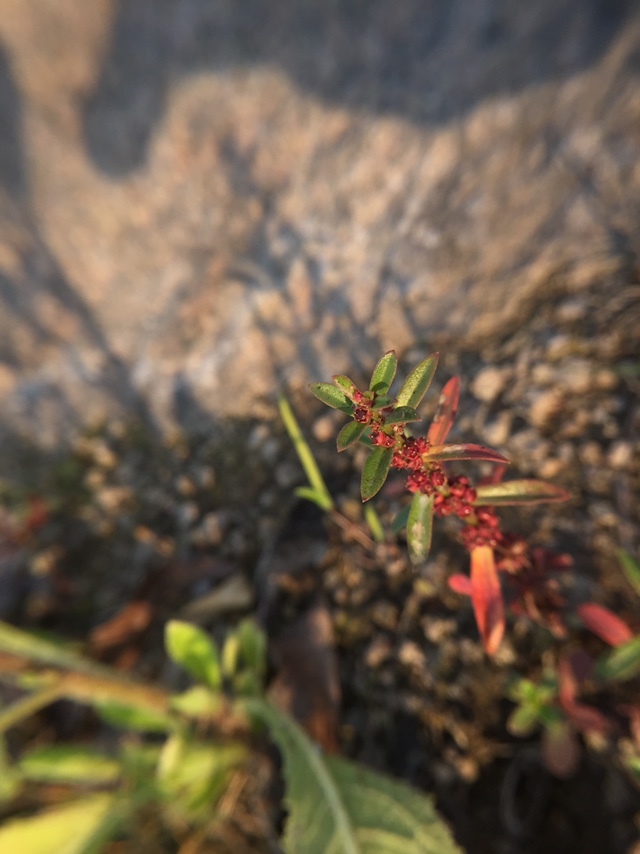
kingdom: Plantae
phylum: Tracheophyta
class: Magnoliopsida
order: Myrtales
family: Lythraceae
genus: Ammannia
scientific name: Ammannia baccifera
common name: Blistering ammania
